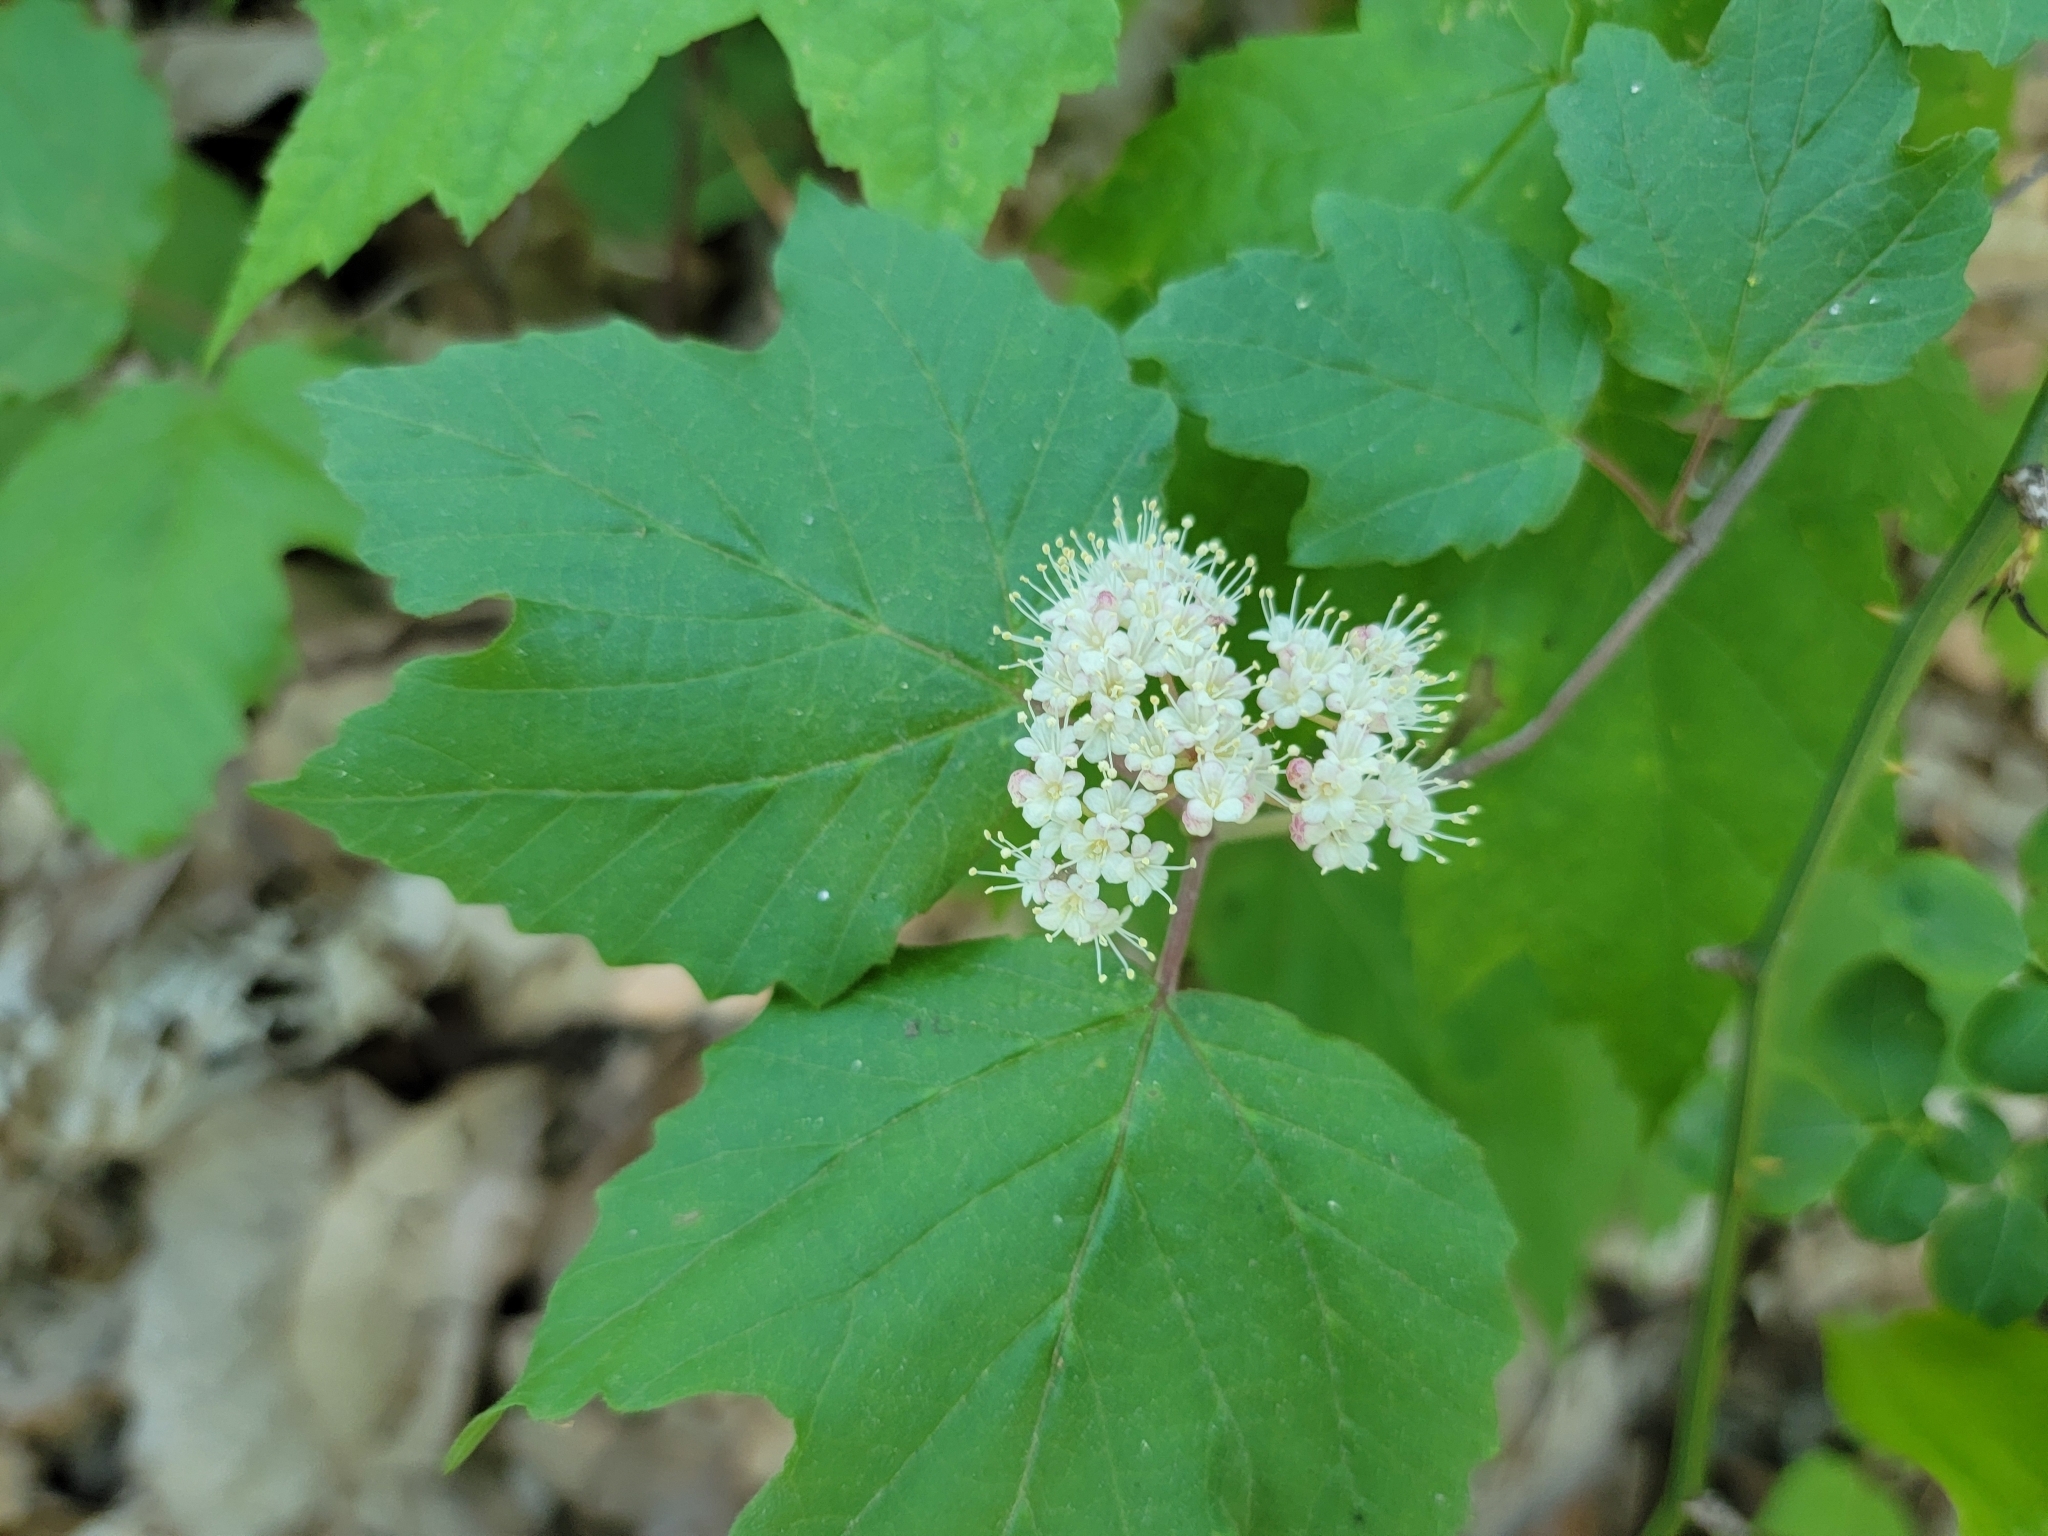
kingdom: Plantae
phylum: Tracheophyta
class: Magnoliopsida
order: Dipsacales
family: Viburnaceae
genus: Viburnum
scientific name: Viburnum acerifolium
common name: Dockmackie
